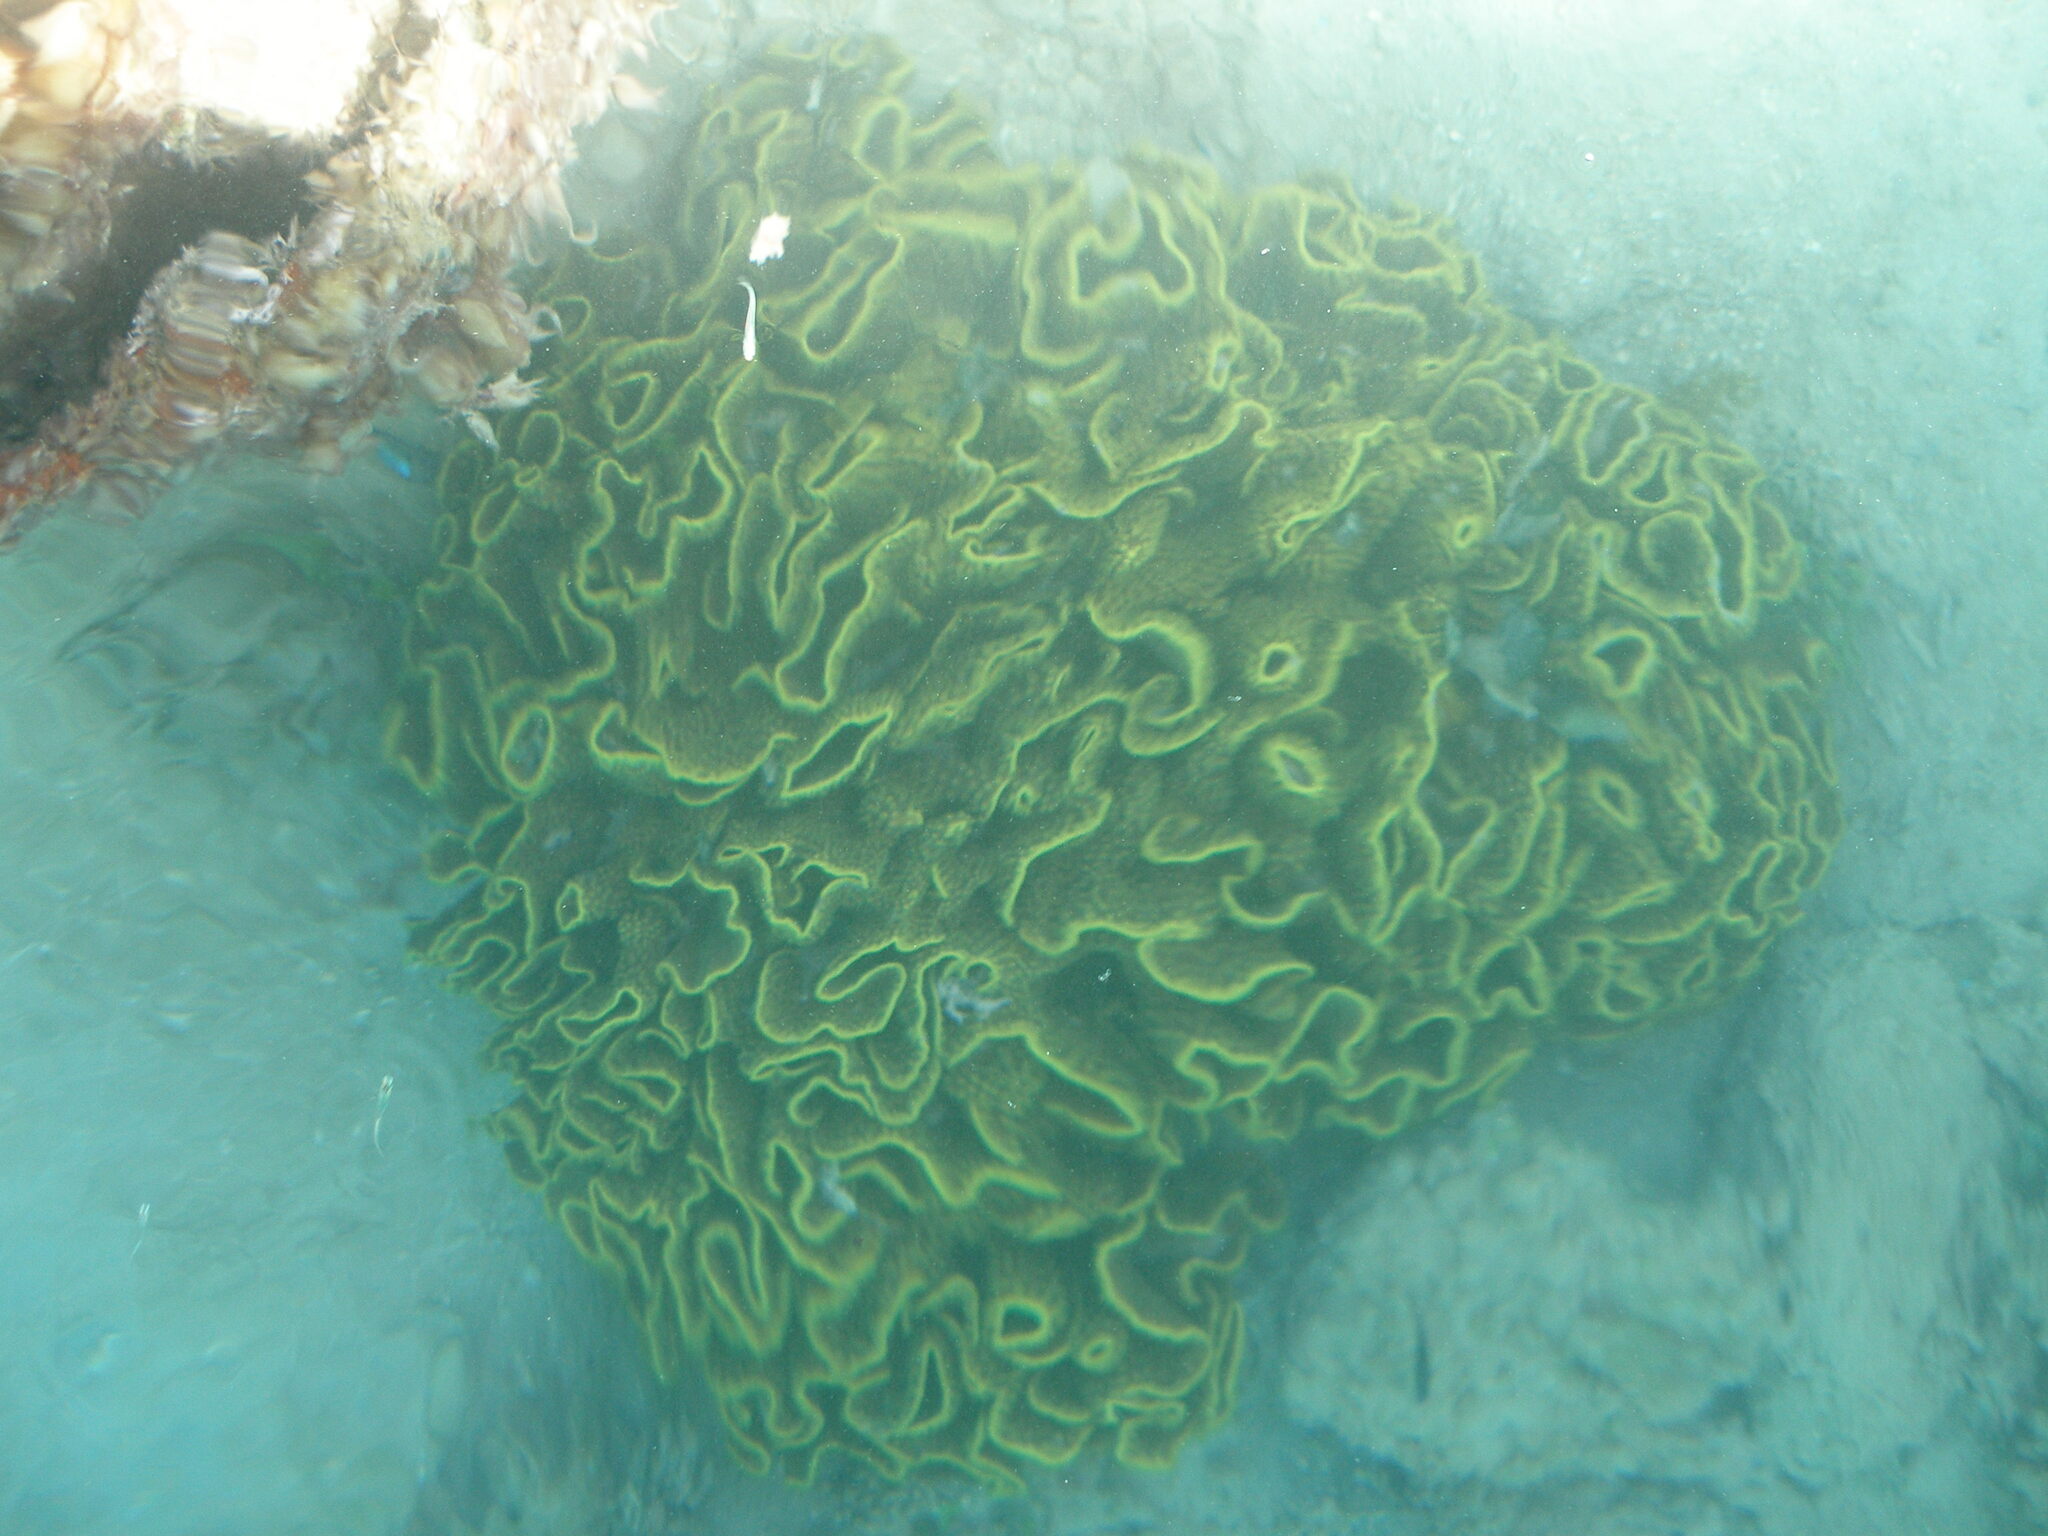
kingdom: Animalia
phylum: Cnidaria
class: Anthozoa
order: Scleractinia
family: Dendrophylliidae
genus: Turbinaria
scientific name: Turbinaria reniformis
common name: Disc coral
